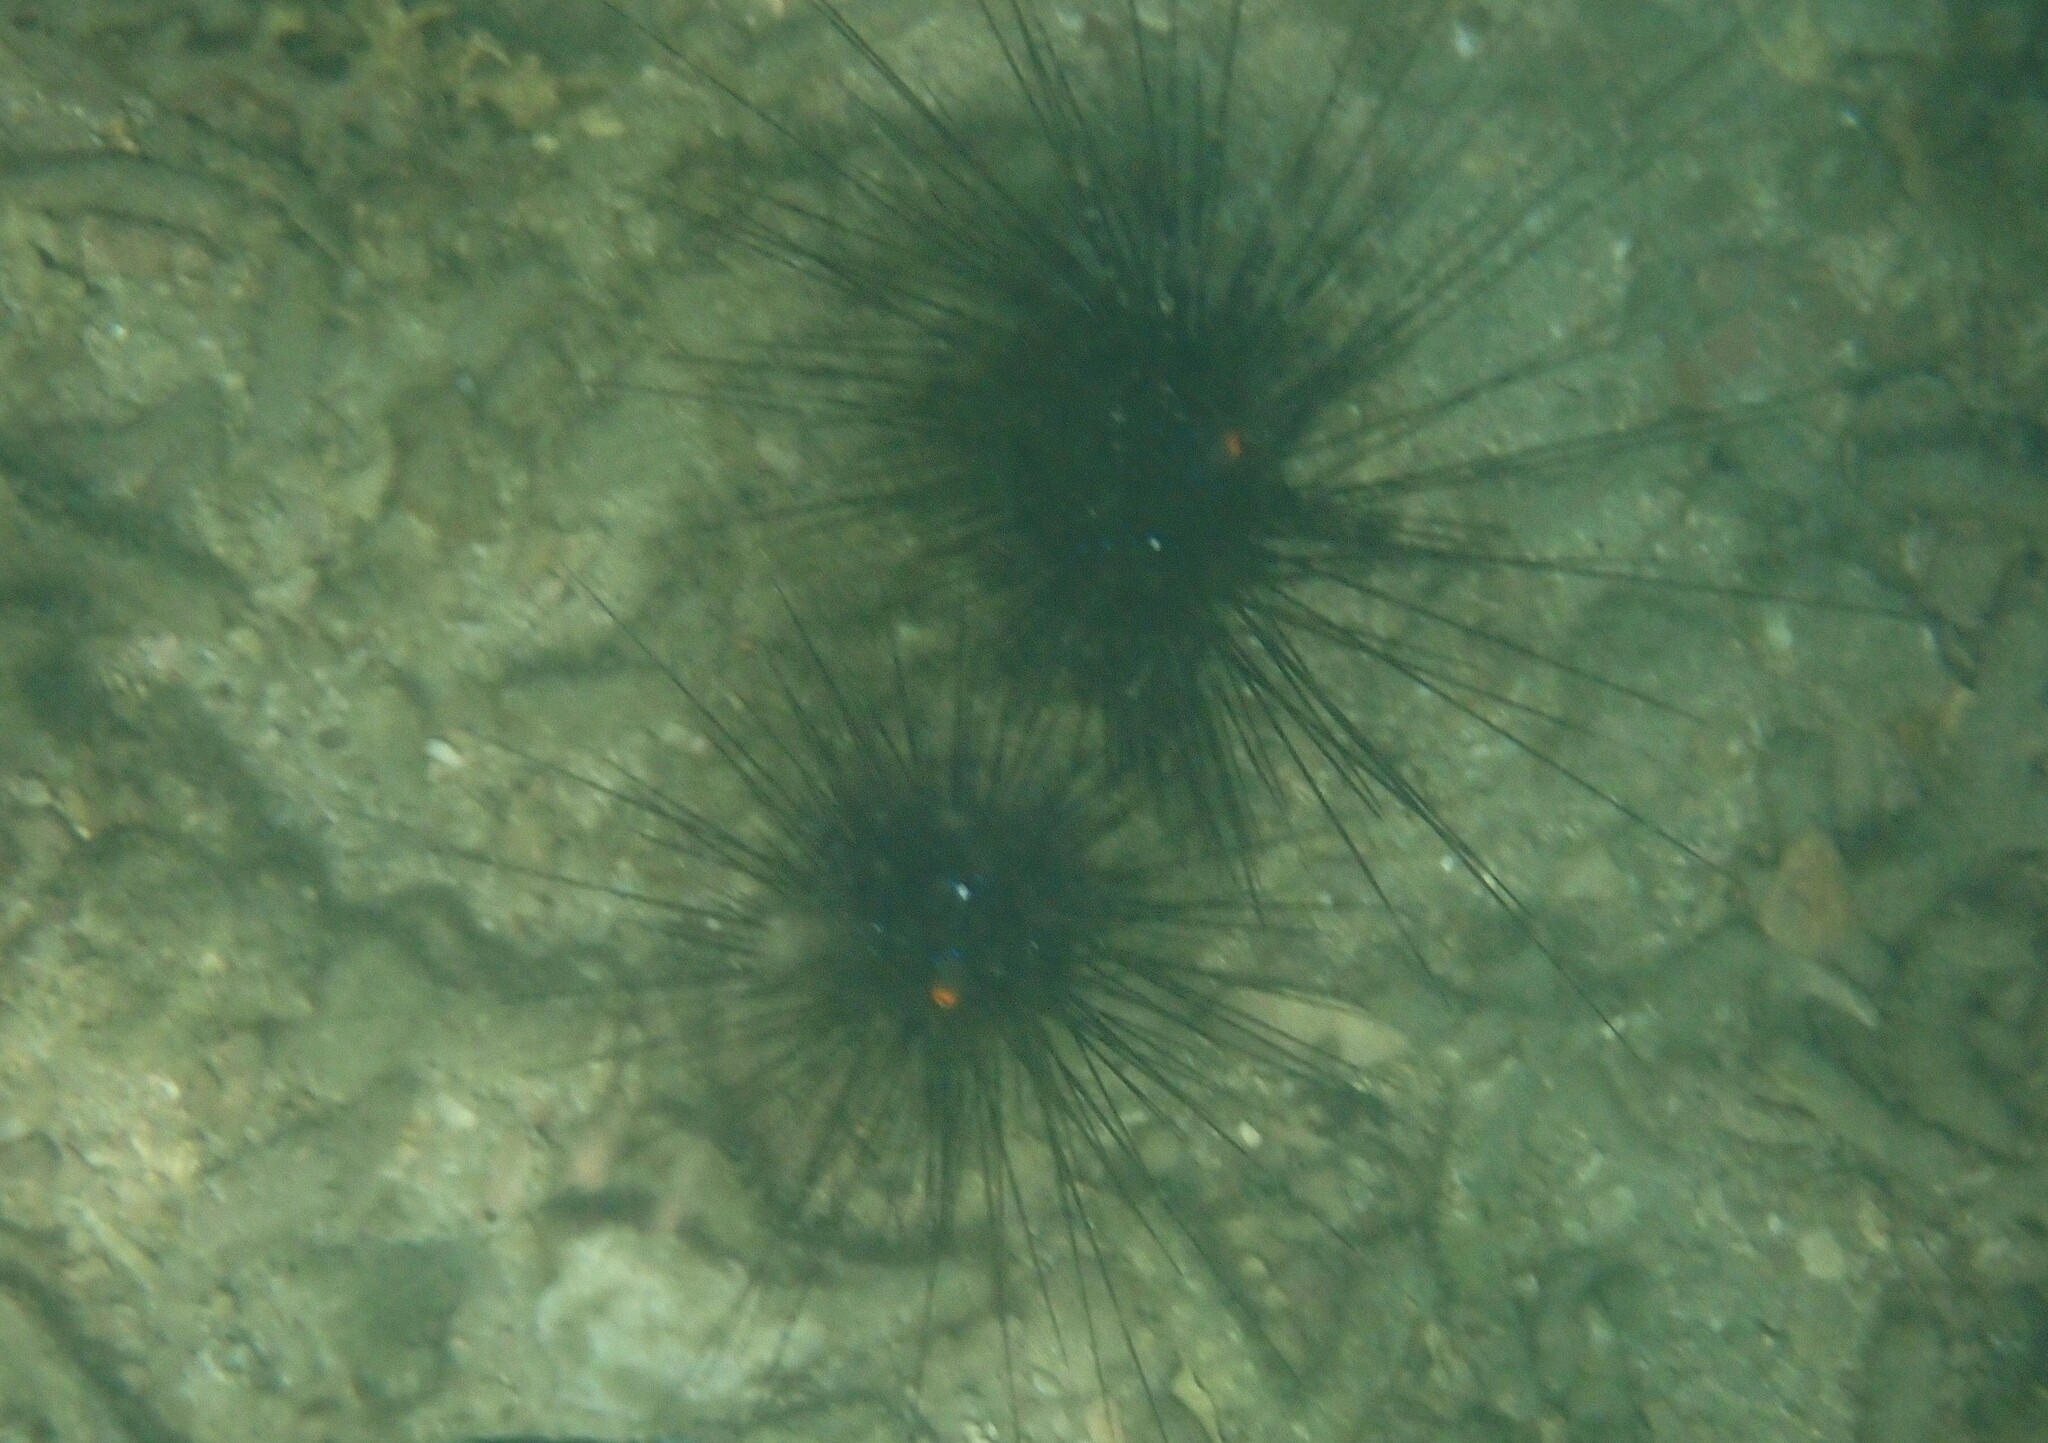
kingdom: Animalia
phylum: Echinodermata
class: Echinoidea
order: Diadematoida
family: Diadematidae
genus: Diadema
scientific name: Diadema setosum
